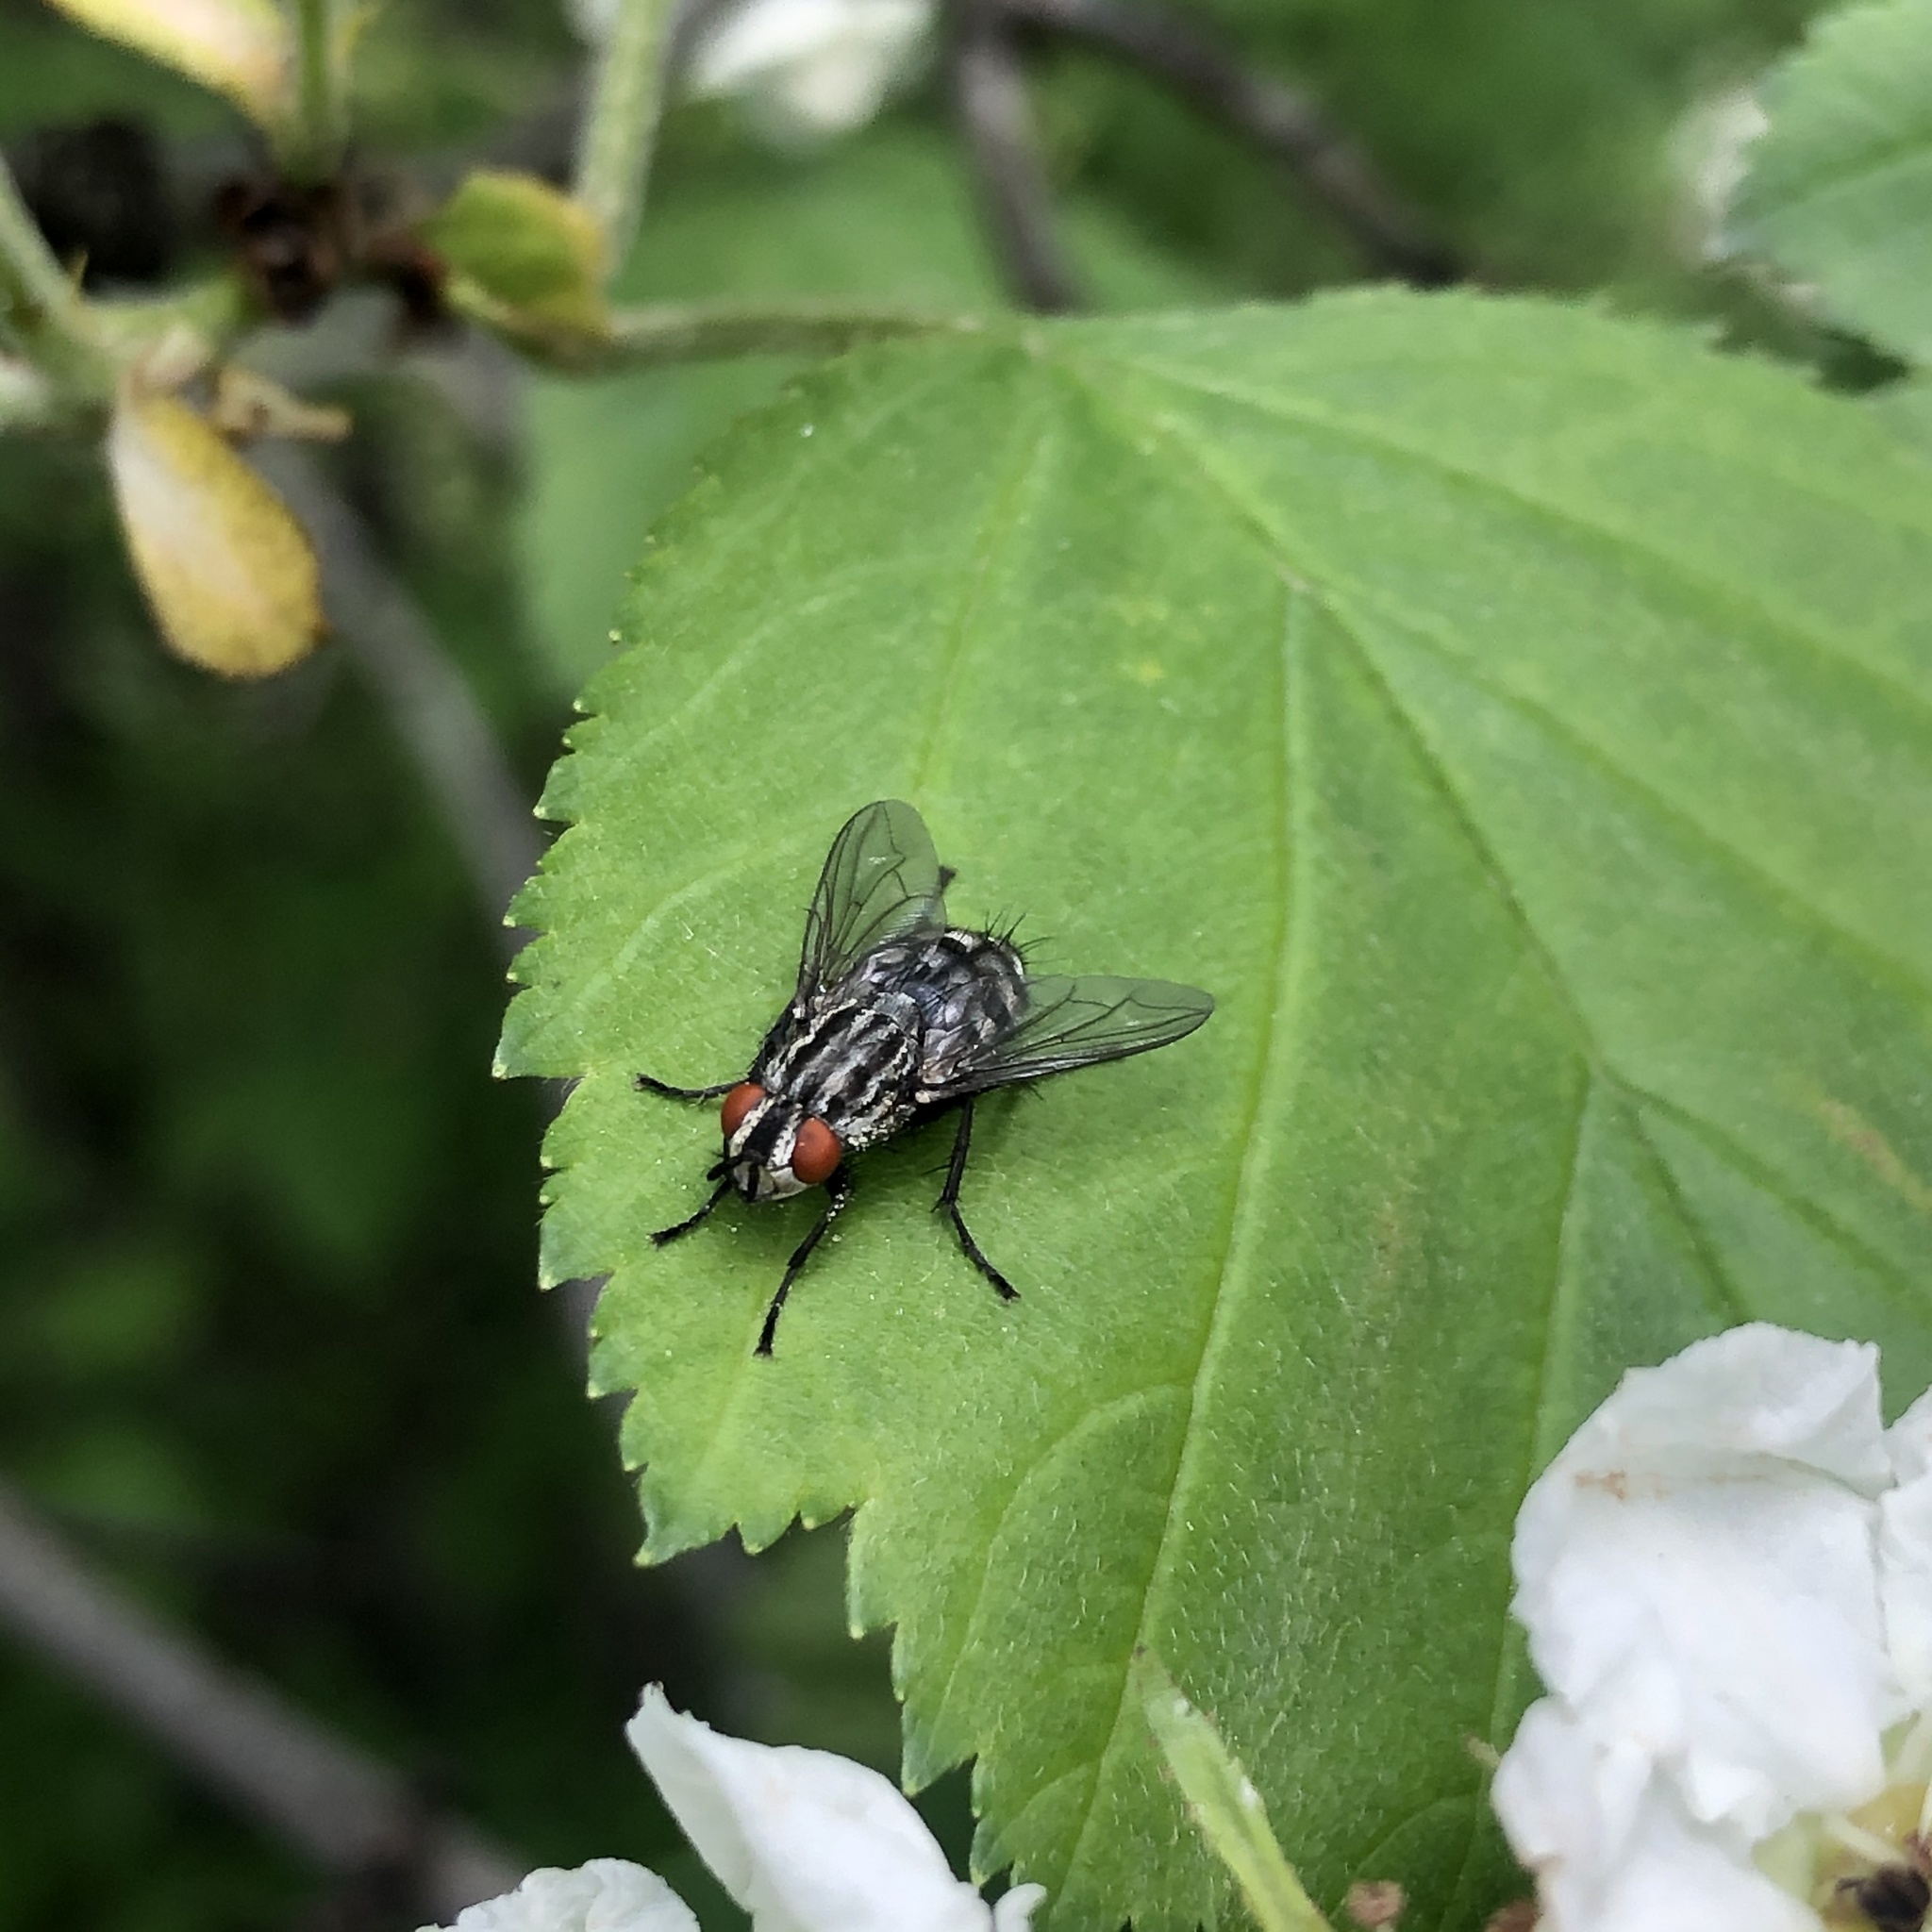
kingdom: Animalia
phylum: Arthropoda
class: Insecta
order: Diptera
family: Sarcophagidae
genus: Sarcophaga
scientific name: Sarcophaga
